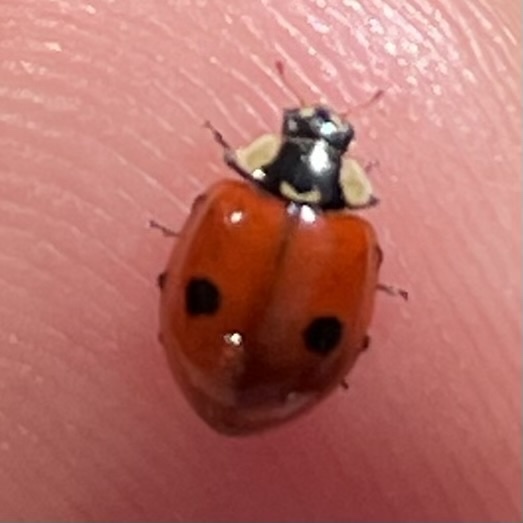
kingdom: Animalia
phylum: Arthropoda
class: Insecta
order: Coleoptera
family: Coccinellidae
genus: Adalia
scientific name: Adalia bipunctata
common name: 2-spot ladybird
